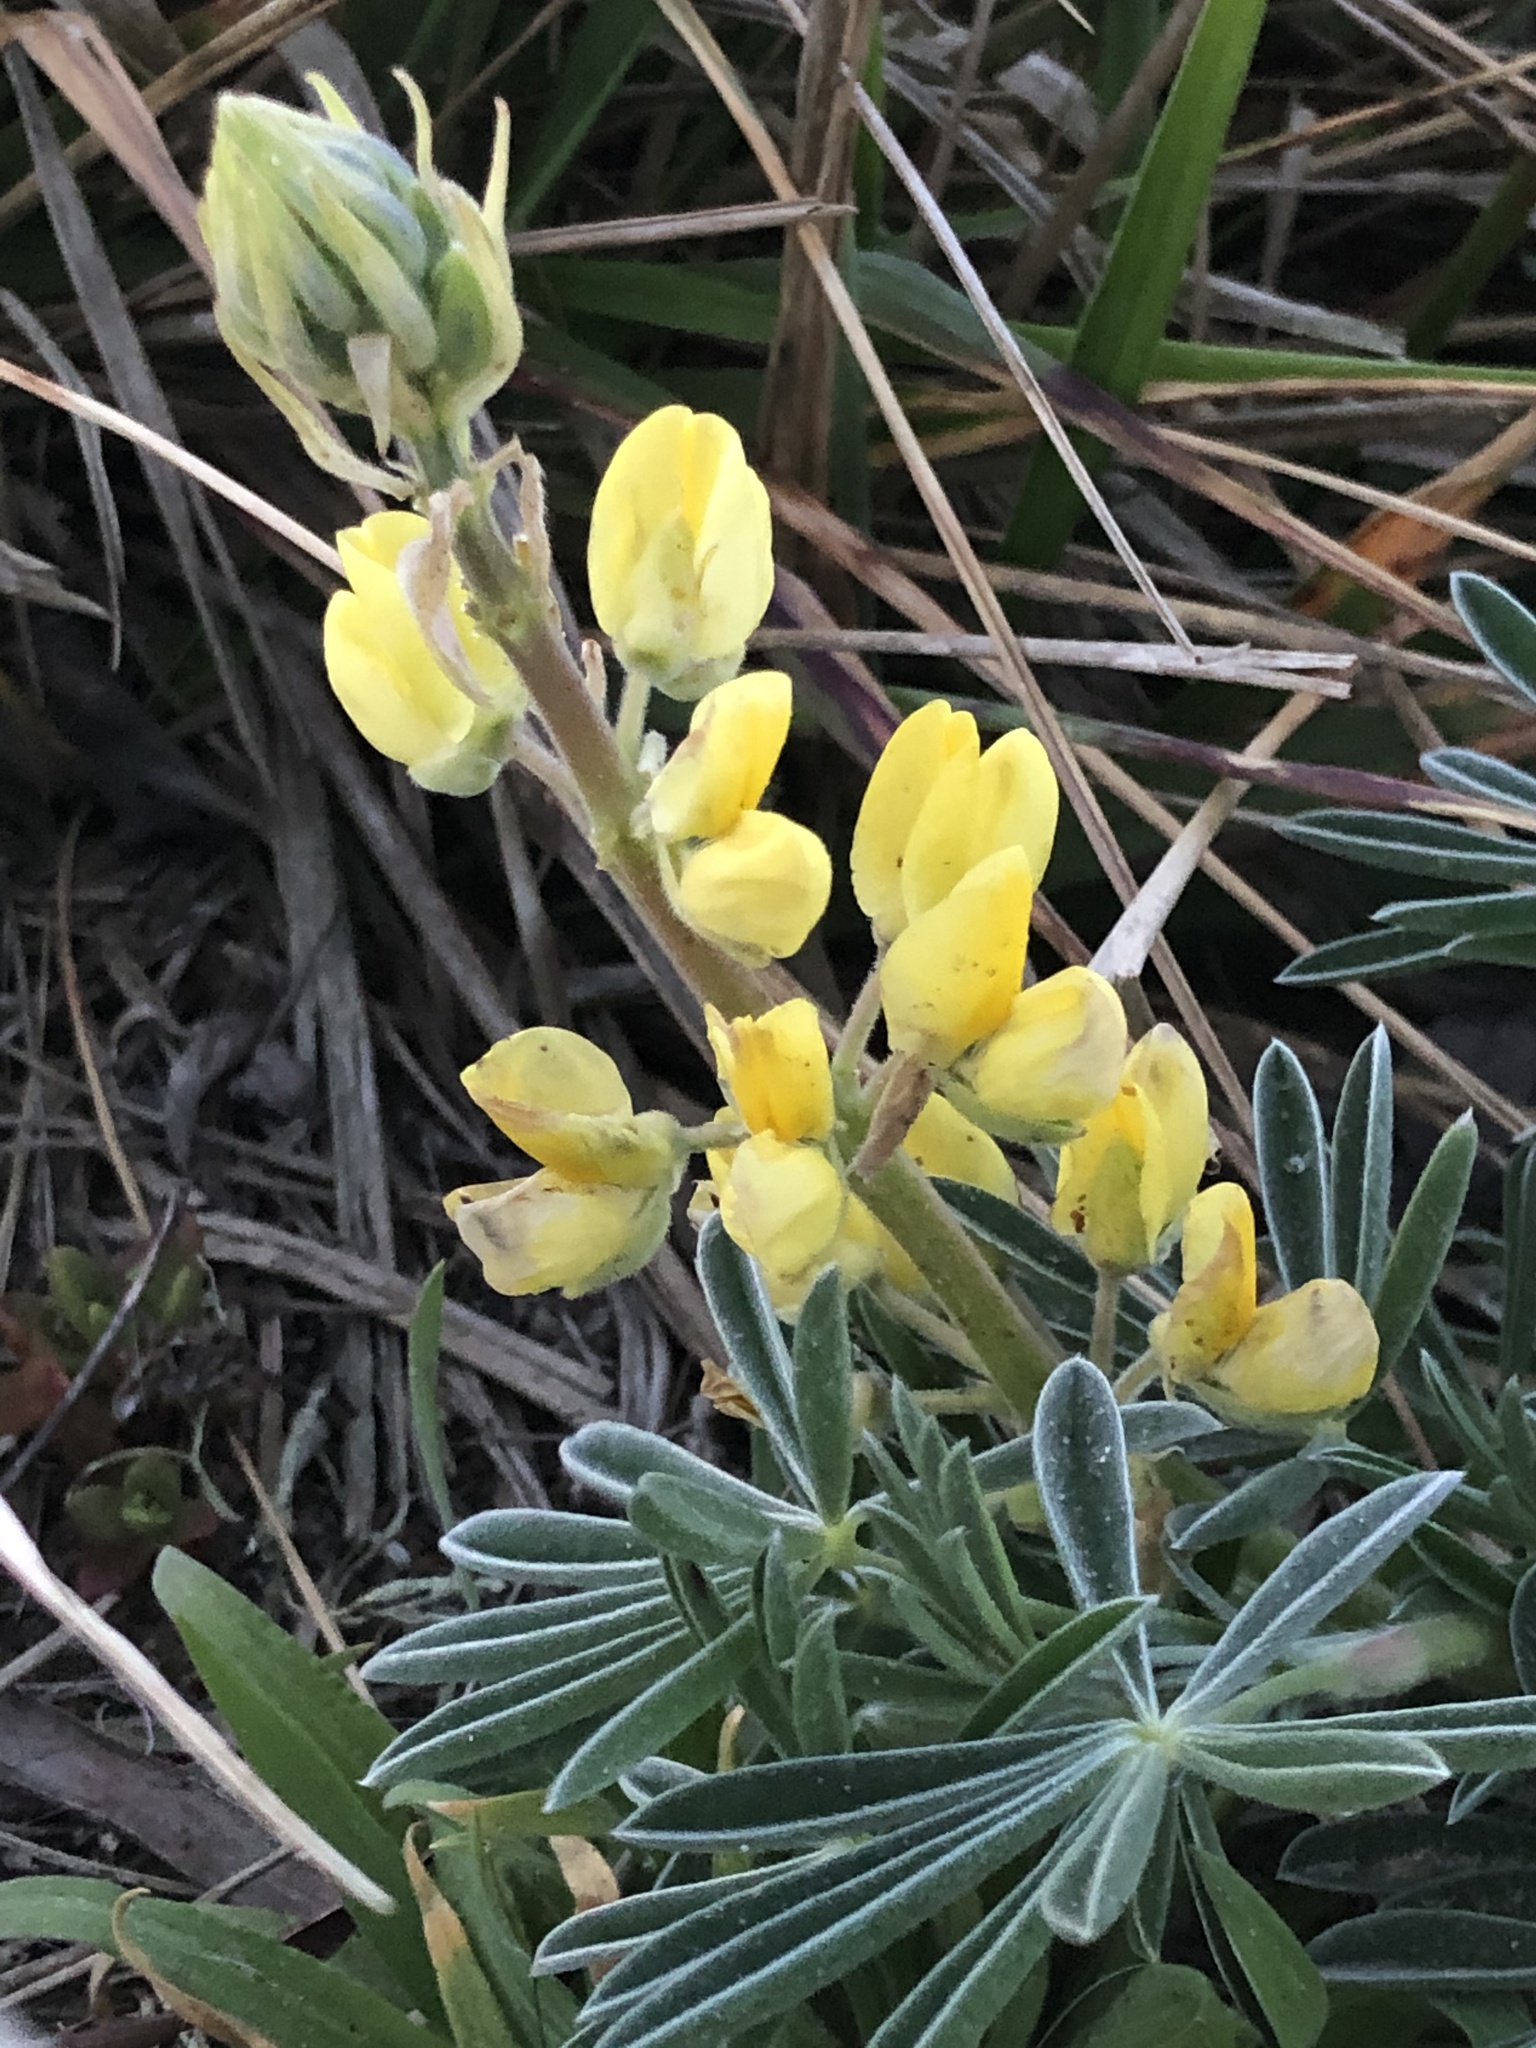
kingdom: Plantae
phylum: Tracheophyta
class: Magnoliopsida
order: Fabales
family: Fabaceae
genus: Lupinus
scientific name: Lupinus arboreus
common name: Yellow bush lupine
